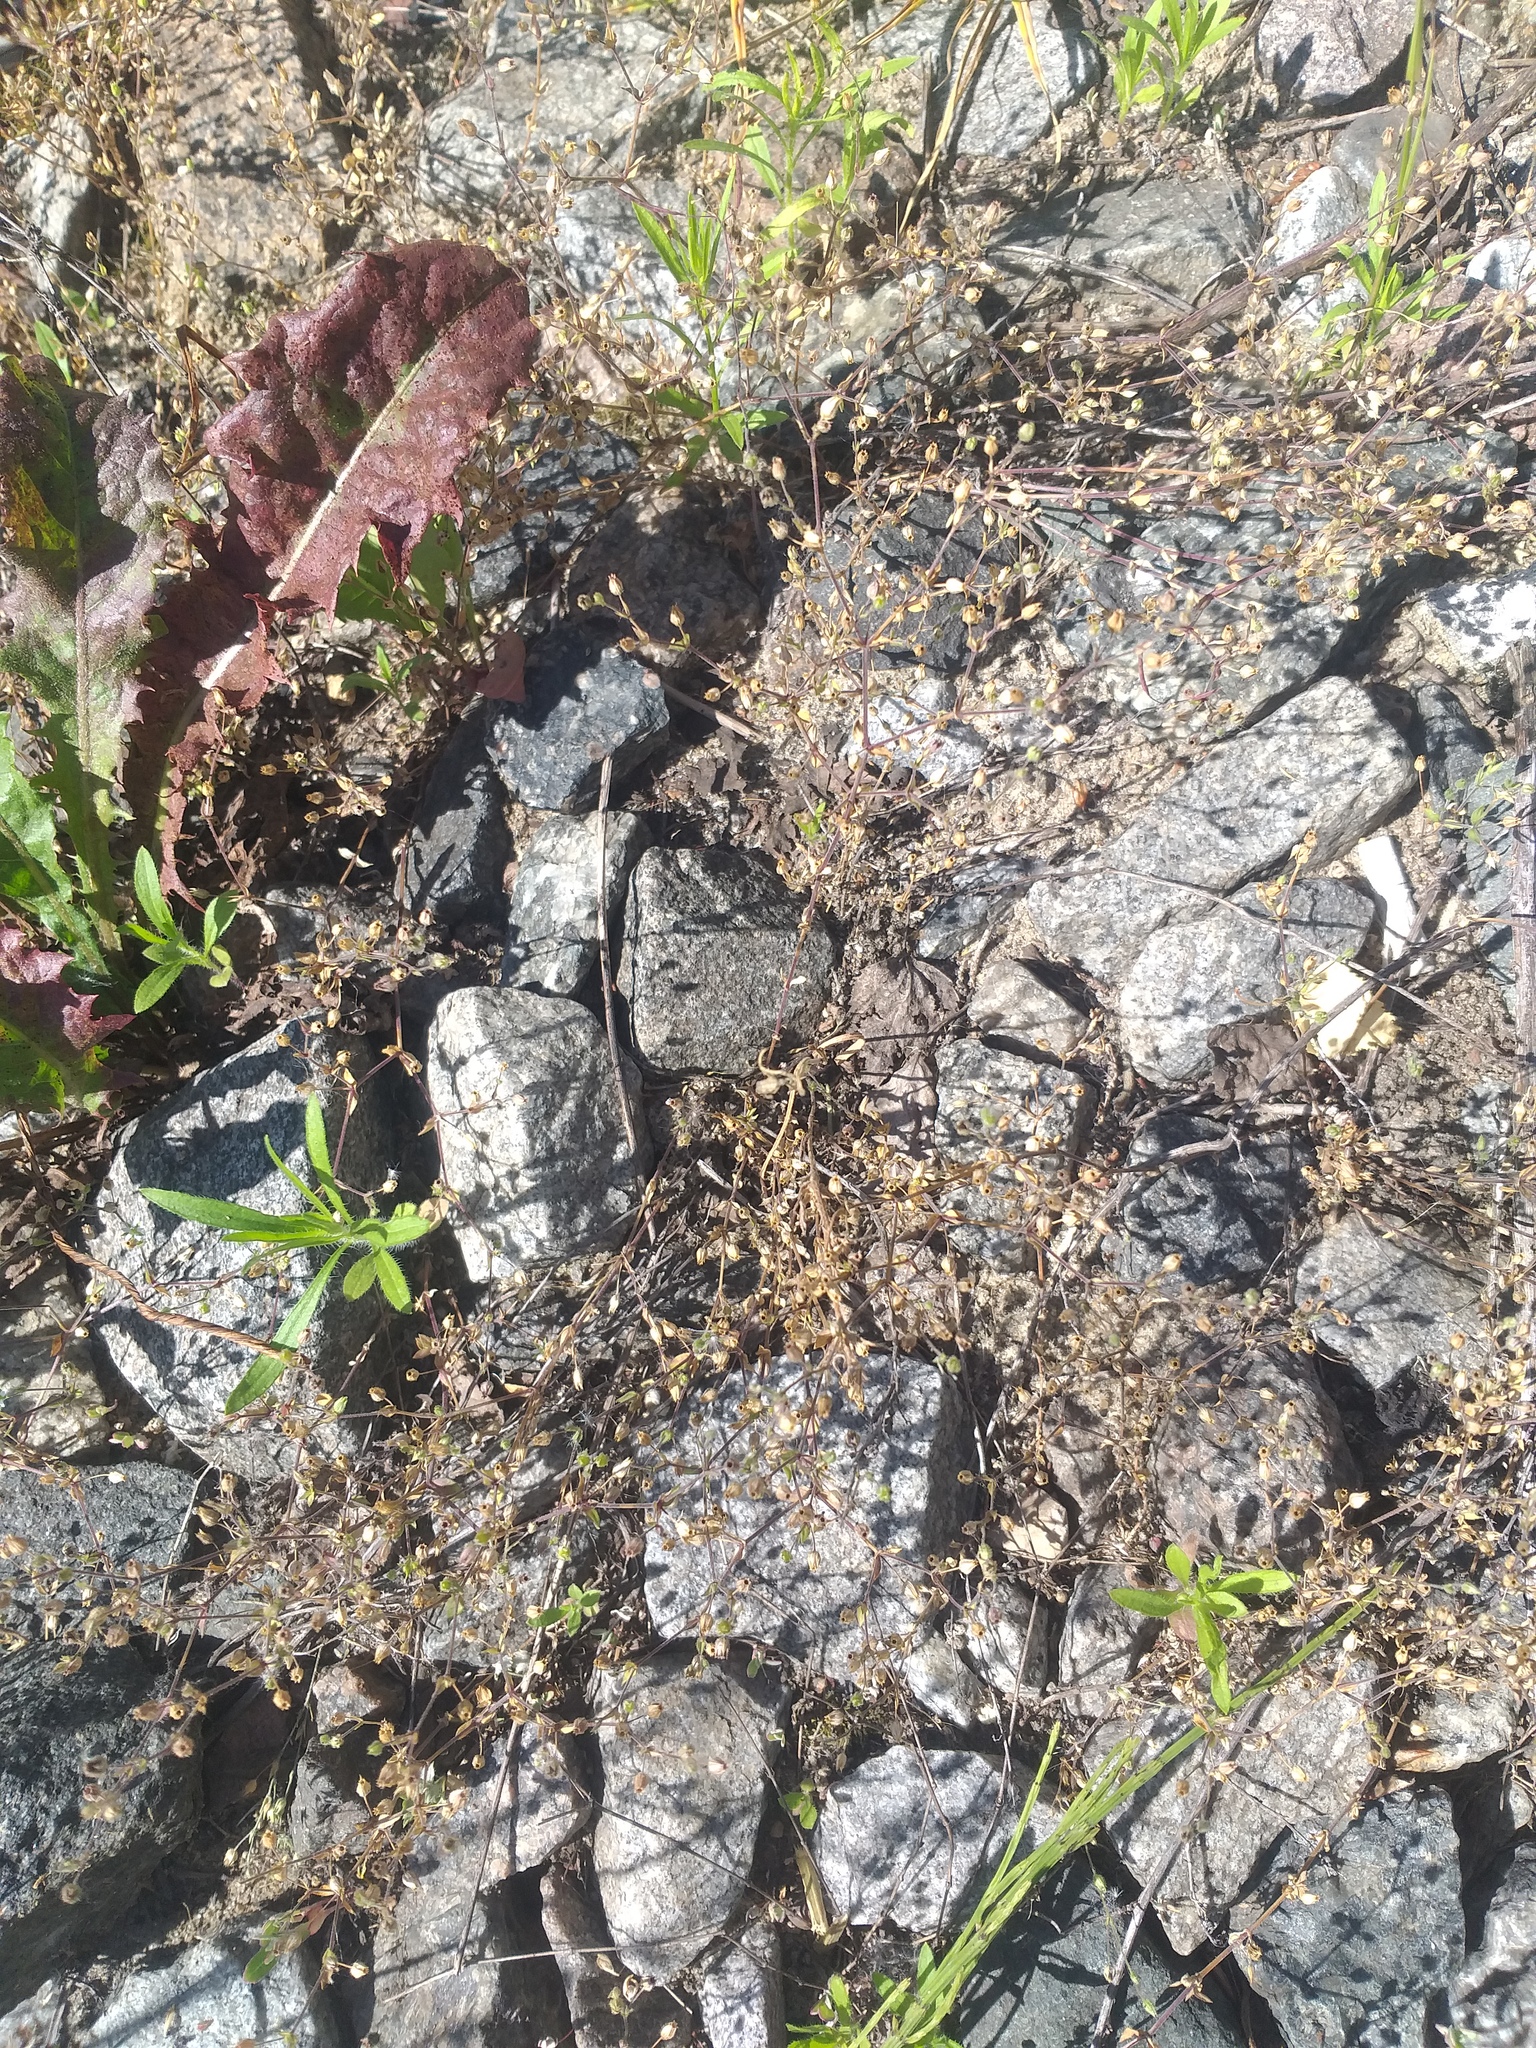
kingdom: Plantae
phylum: Tracheophyta
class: Magnoliopsida
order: Caryophyllales
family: Caryophyllaceae
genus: Arenaria
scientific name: Arenaria serpyllifolia
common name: Thyme-leaved sandwort
